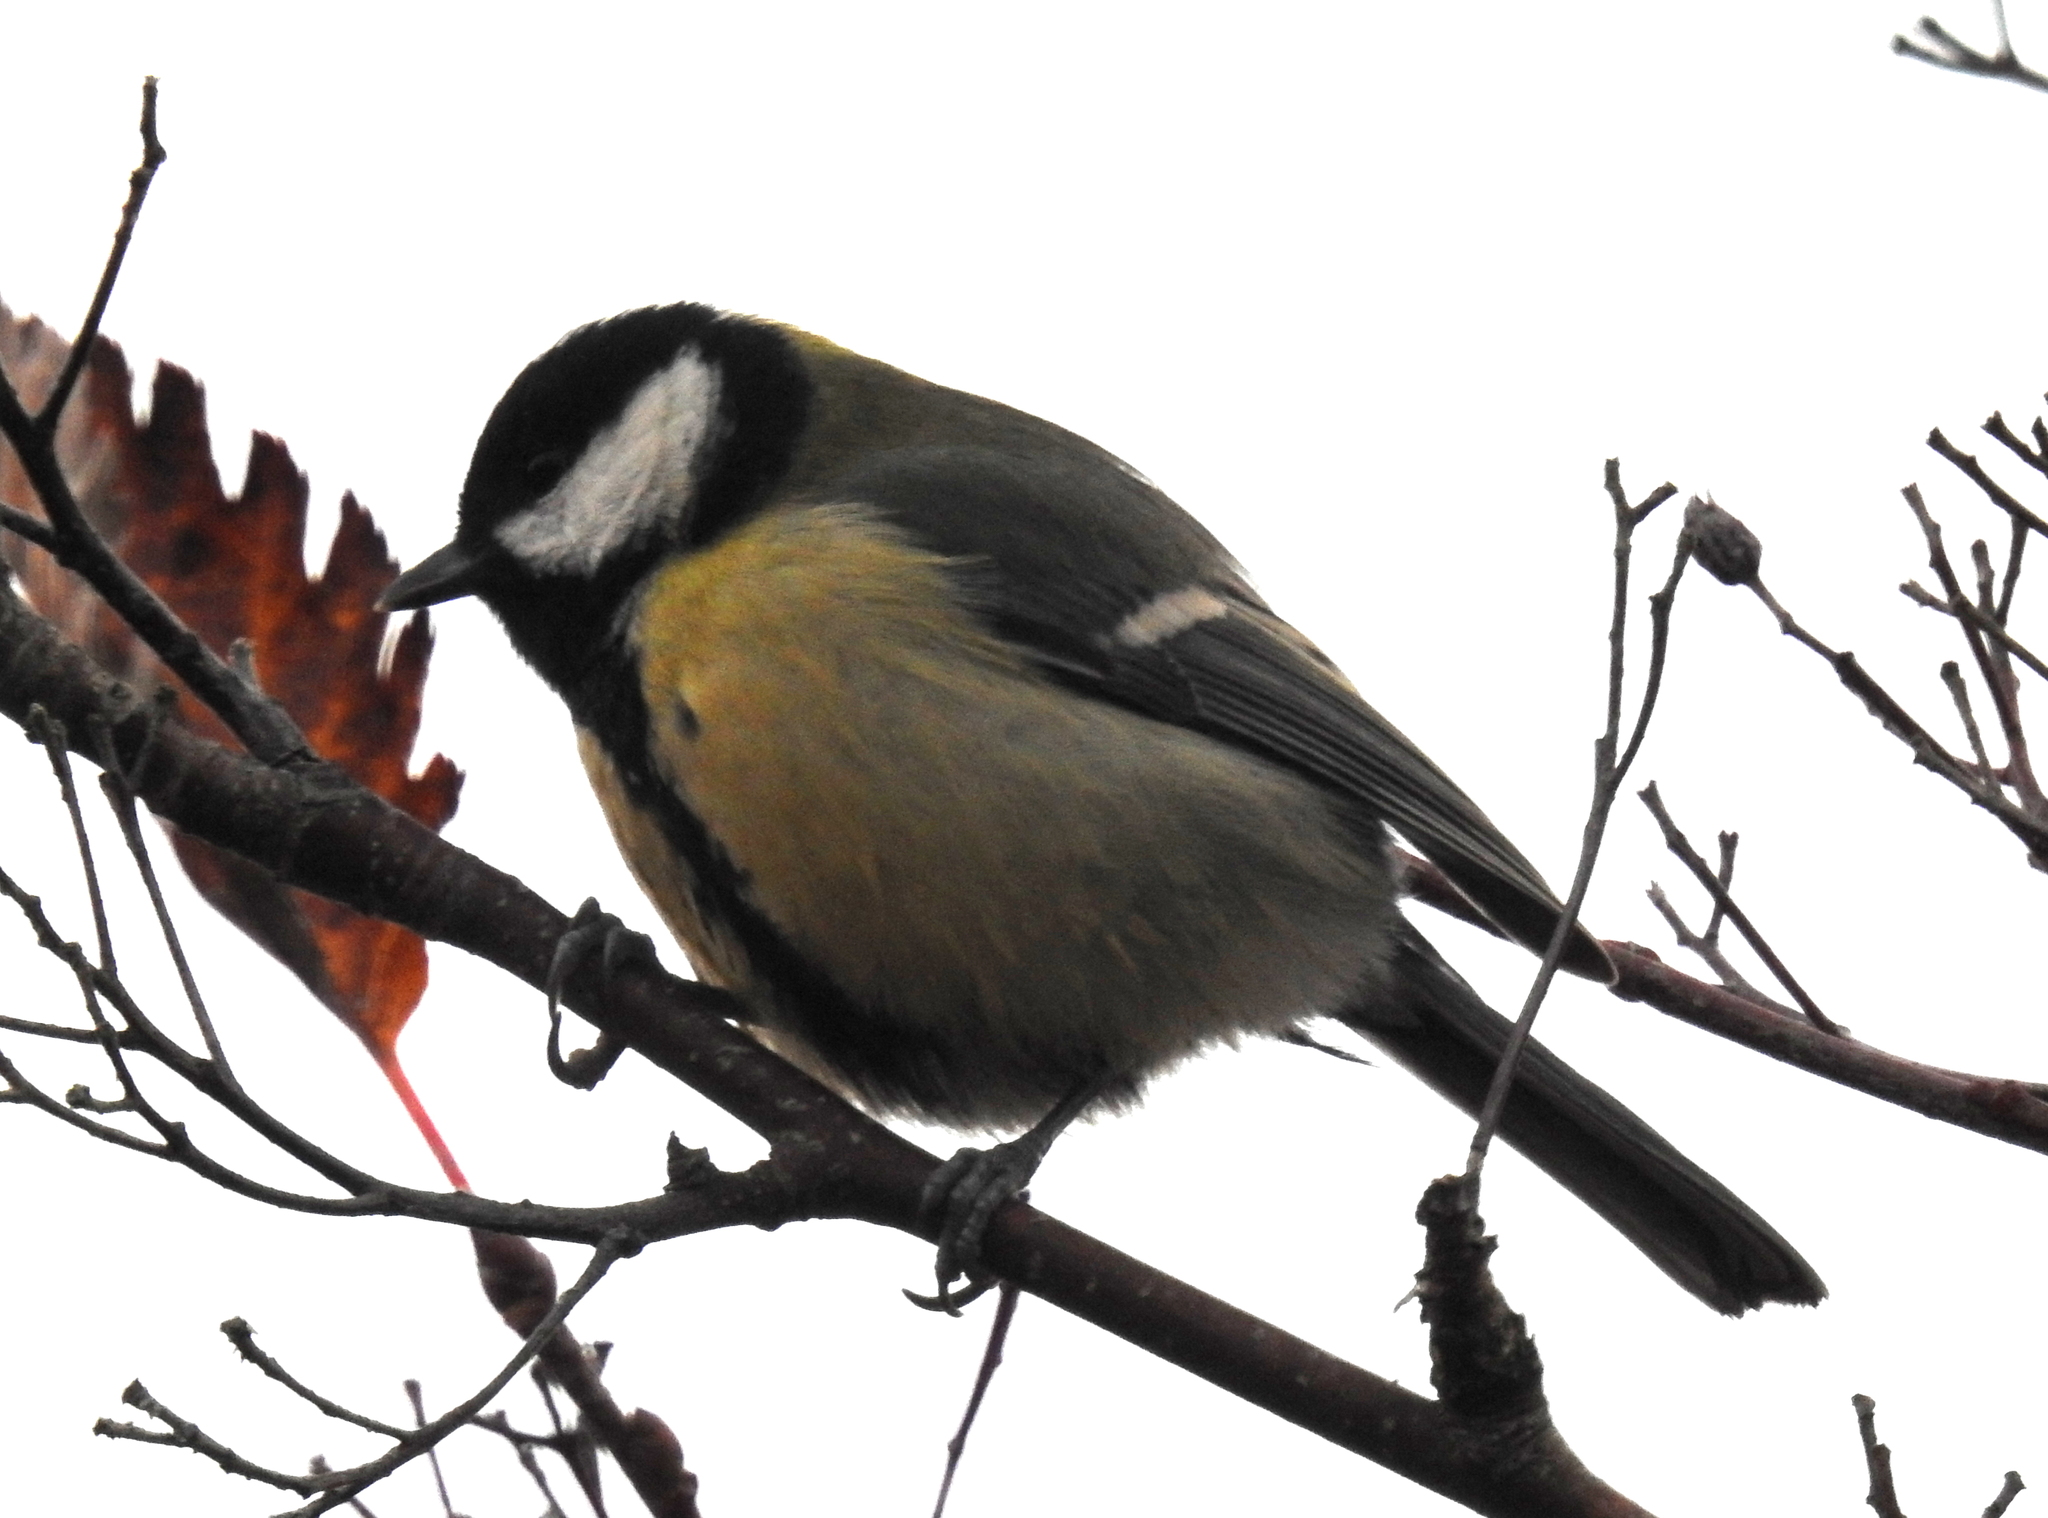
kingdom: Animalia
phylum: Chordata
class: Aves
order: Passeriformes
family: Paridae
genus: Parus
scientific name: Parus major
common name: Great tit
